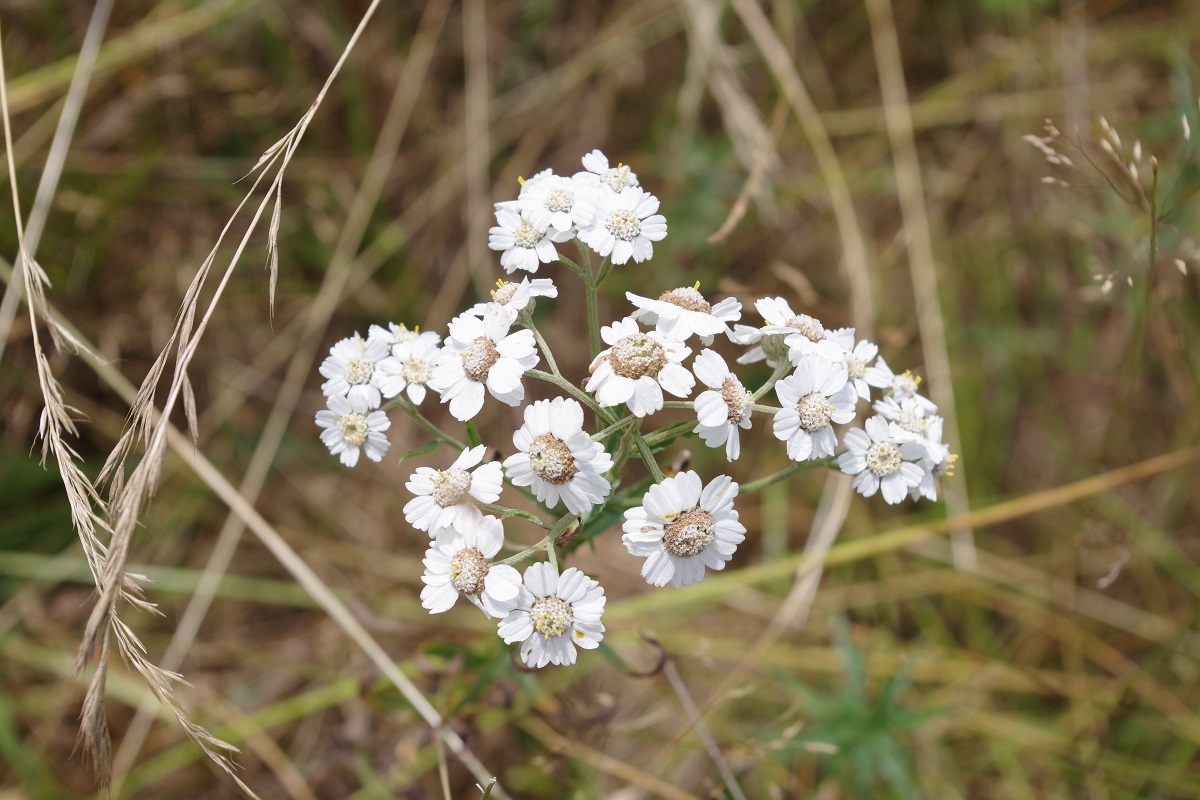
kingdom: Plantae
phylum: Tracheophyta
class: Magnoliopsida
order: Asterales
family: Asteraceae
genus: Achillea
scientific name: Achillea ptarmica
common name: Sneezeweed
